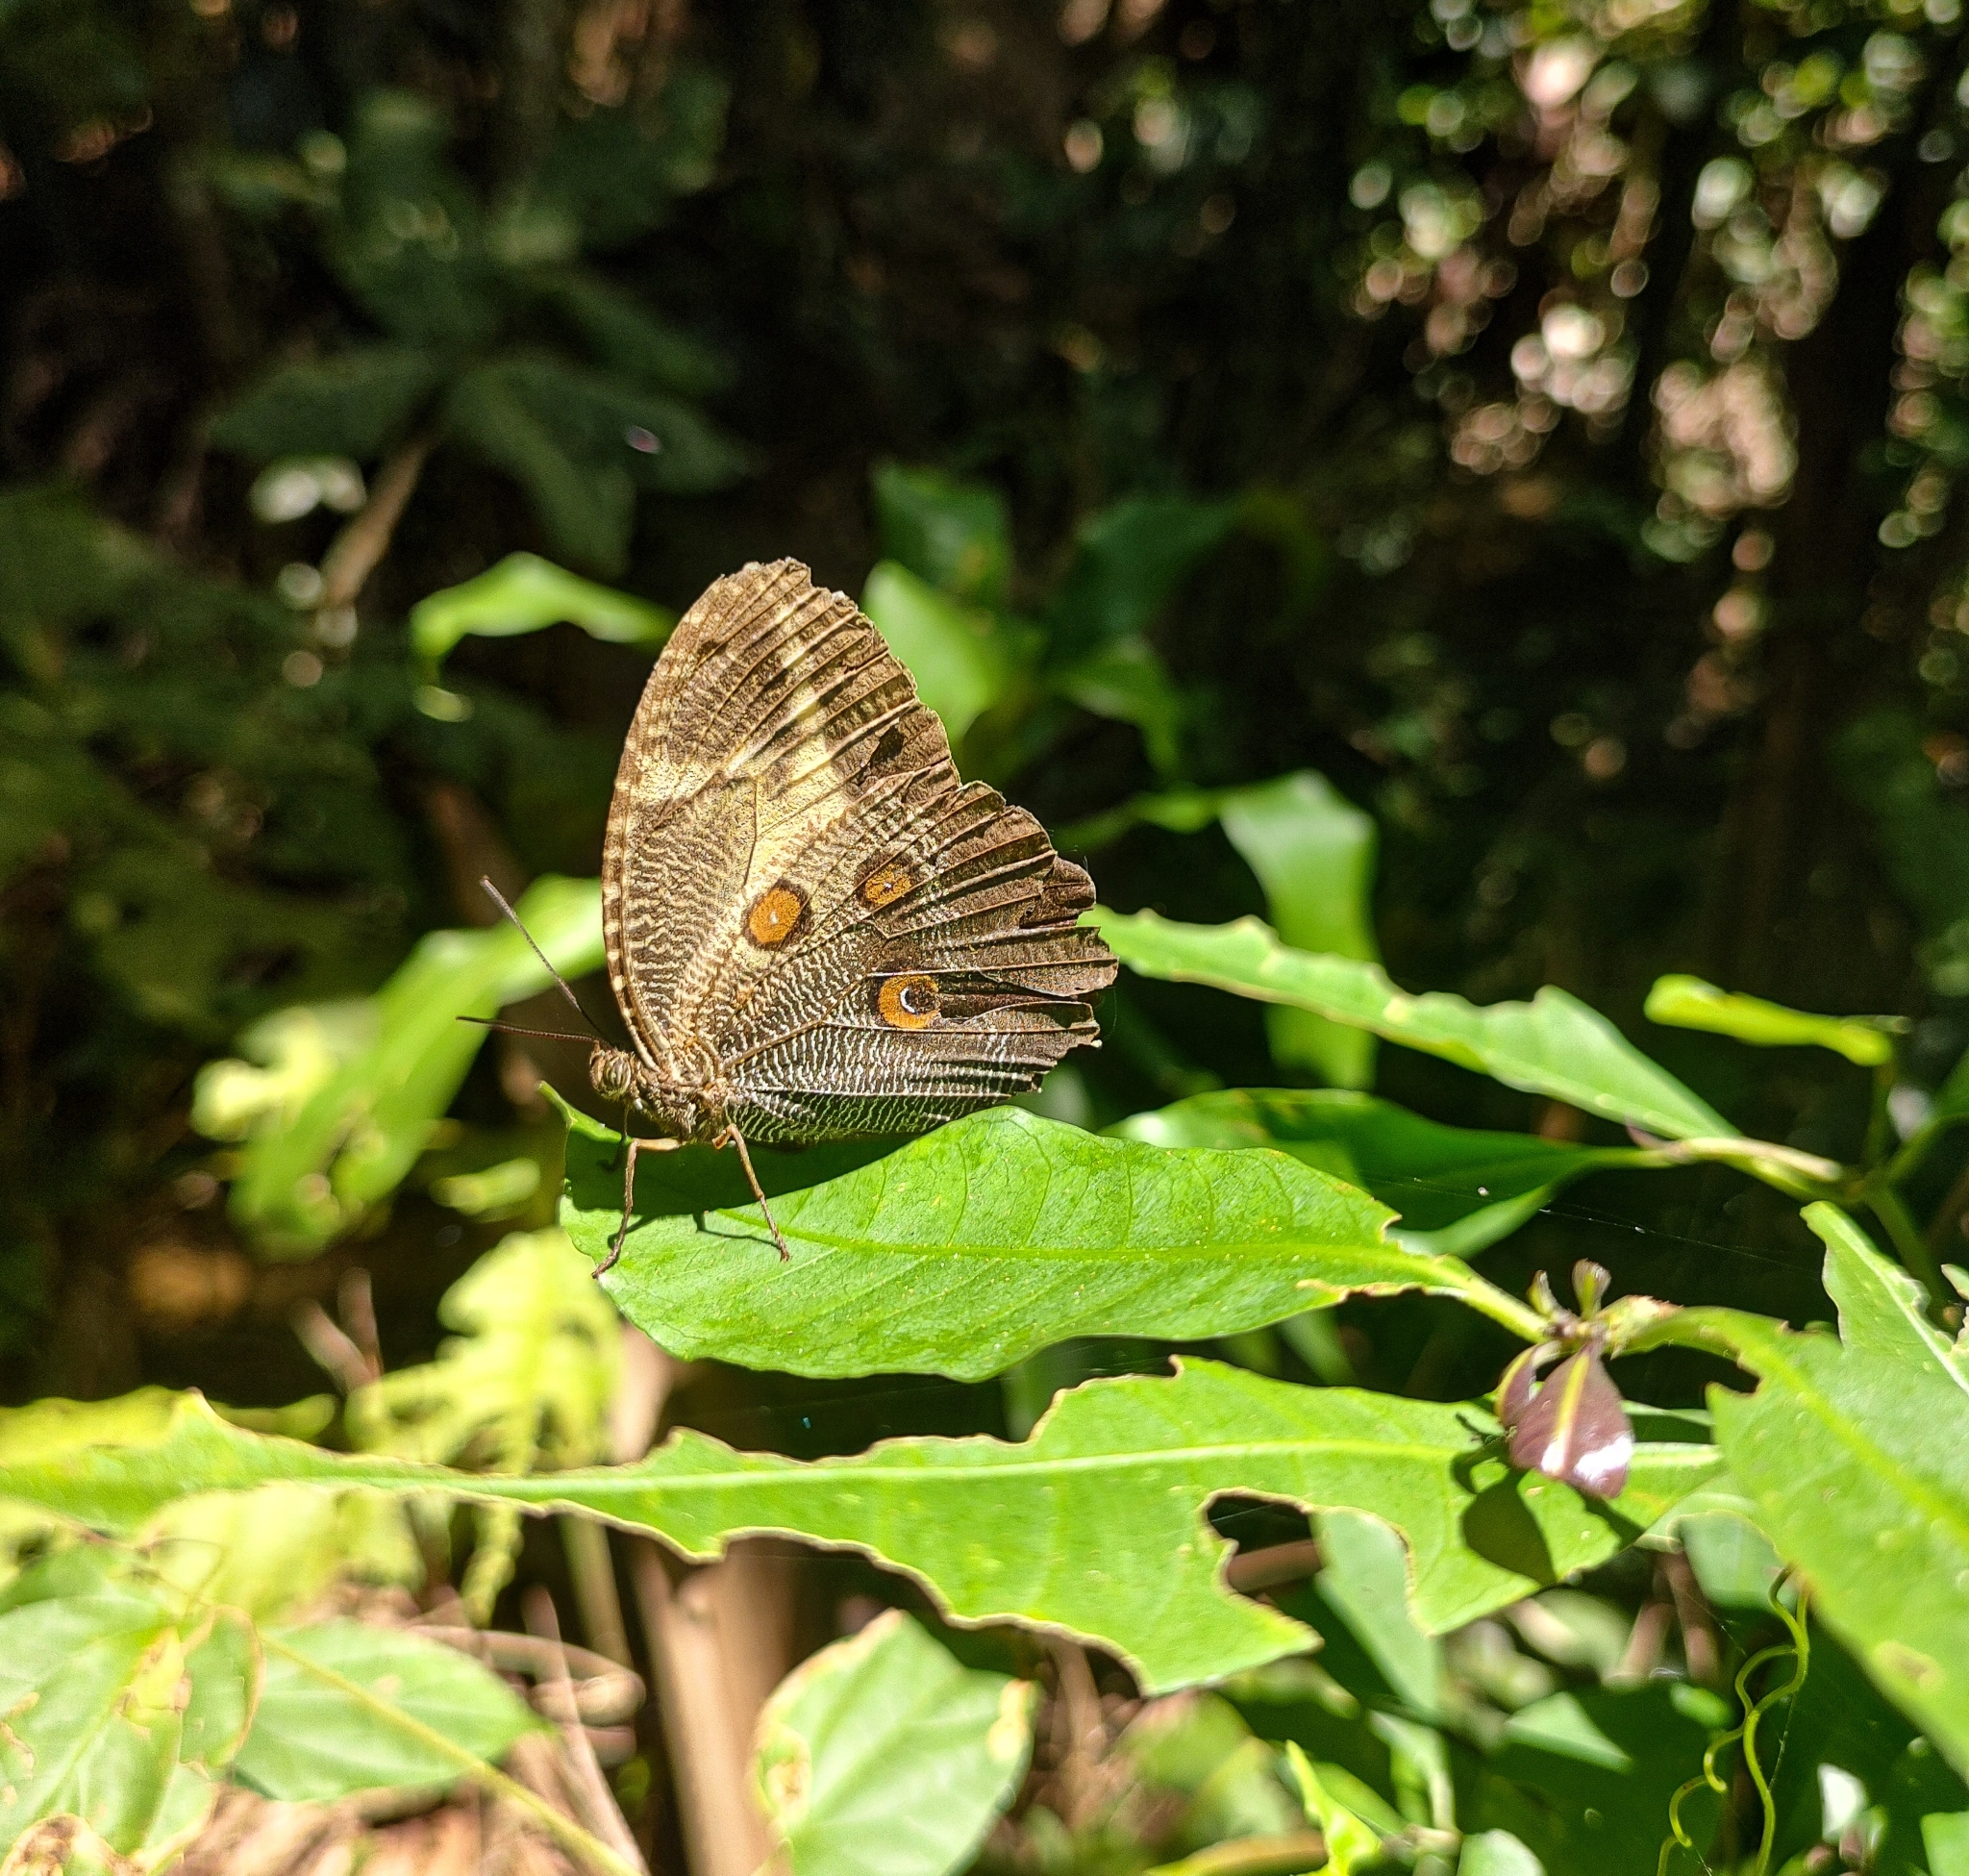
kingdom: Animalia
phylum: Arthropoda
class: Insecta
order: Lepidoptera
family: Nymphalidae
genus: Dasyophthalma
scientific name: Dasyophthalma creusa
